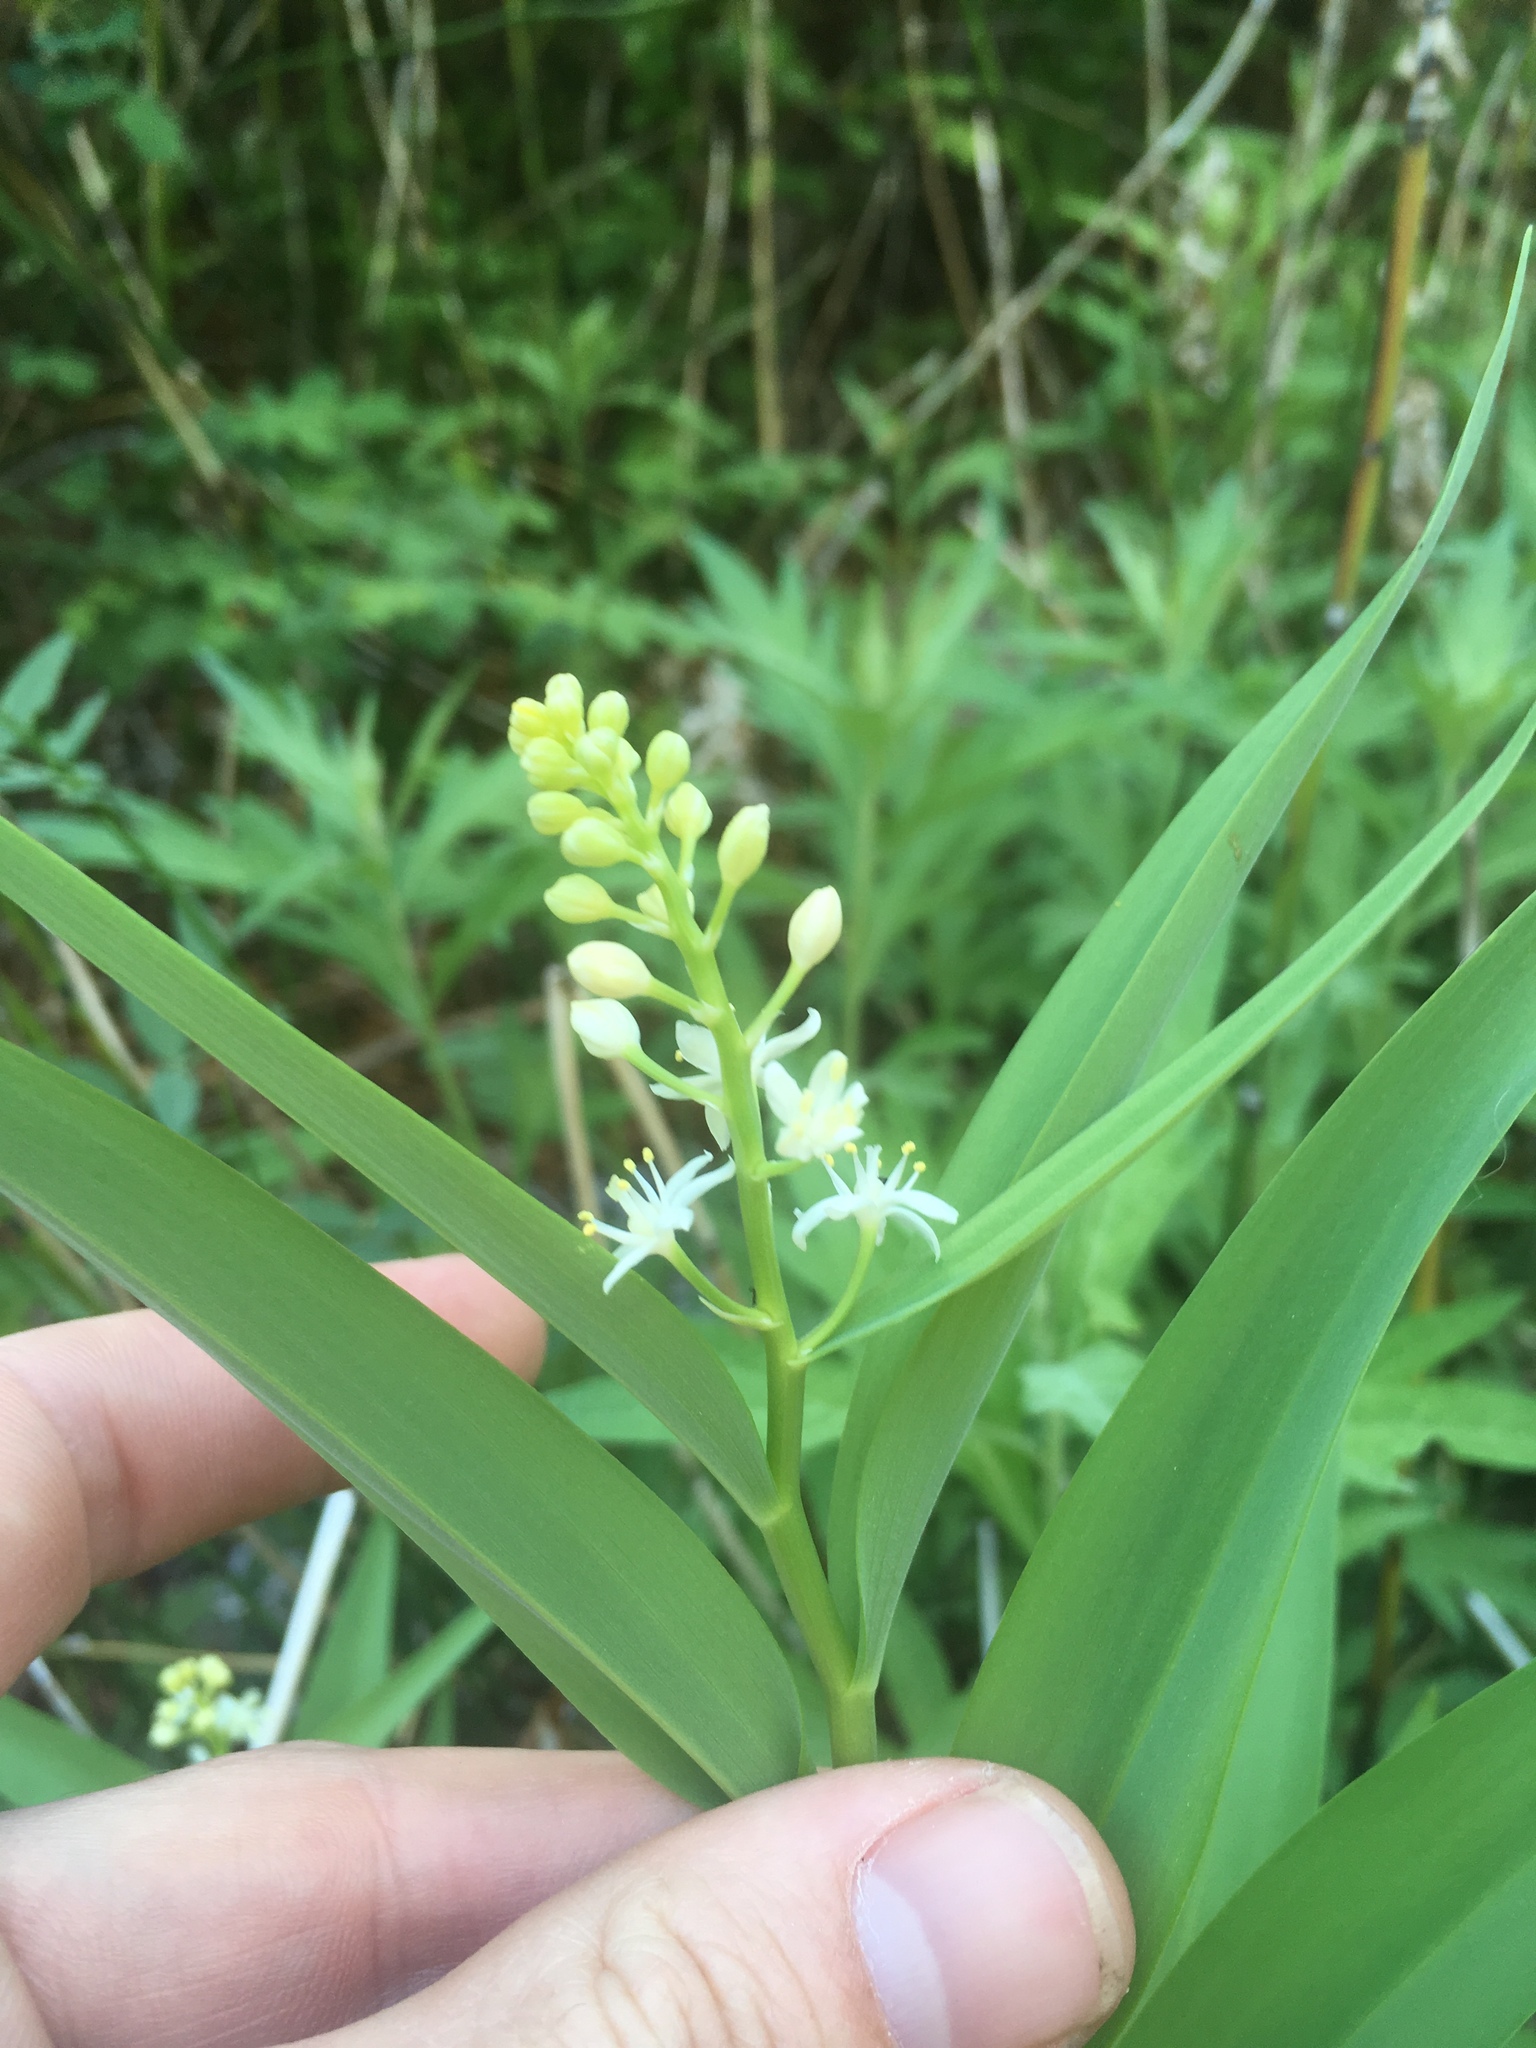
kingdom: Plantae
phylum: Tracheophyta
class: Liliopsida
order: Asparagales
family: Asparagaceae
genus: Maianthemum
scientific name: Maianthemum stellatum
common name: Little false solomon's seal
